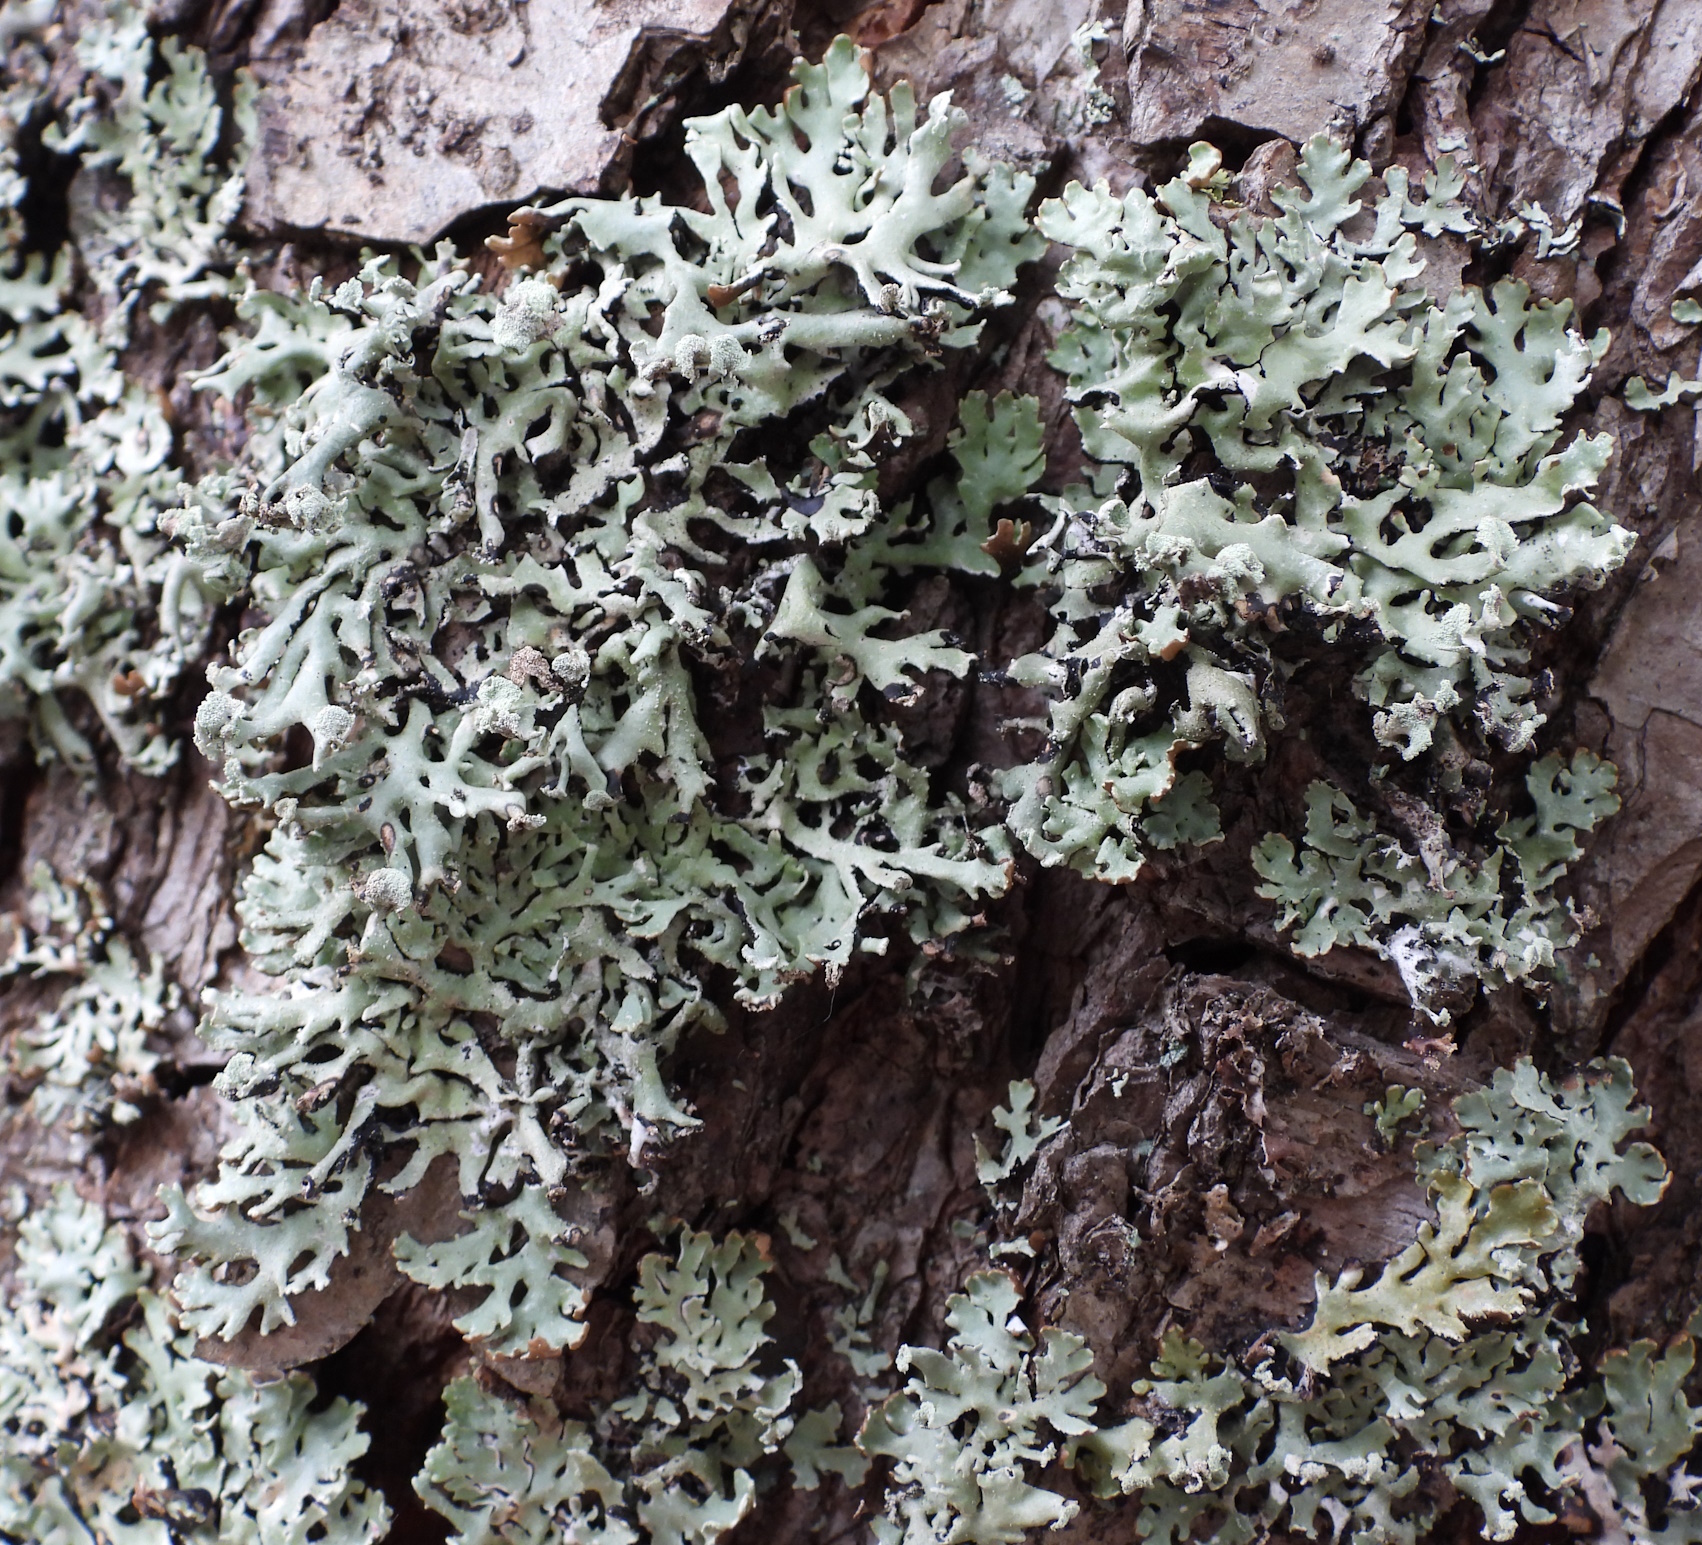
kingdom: Fungi
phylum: Ascomycota
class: Lecanoromycetes
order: Lecanorales
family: Parmeliaceae
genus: Hypogymnia
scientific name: Hypogymnia physodes
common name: Dark crottle
